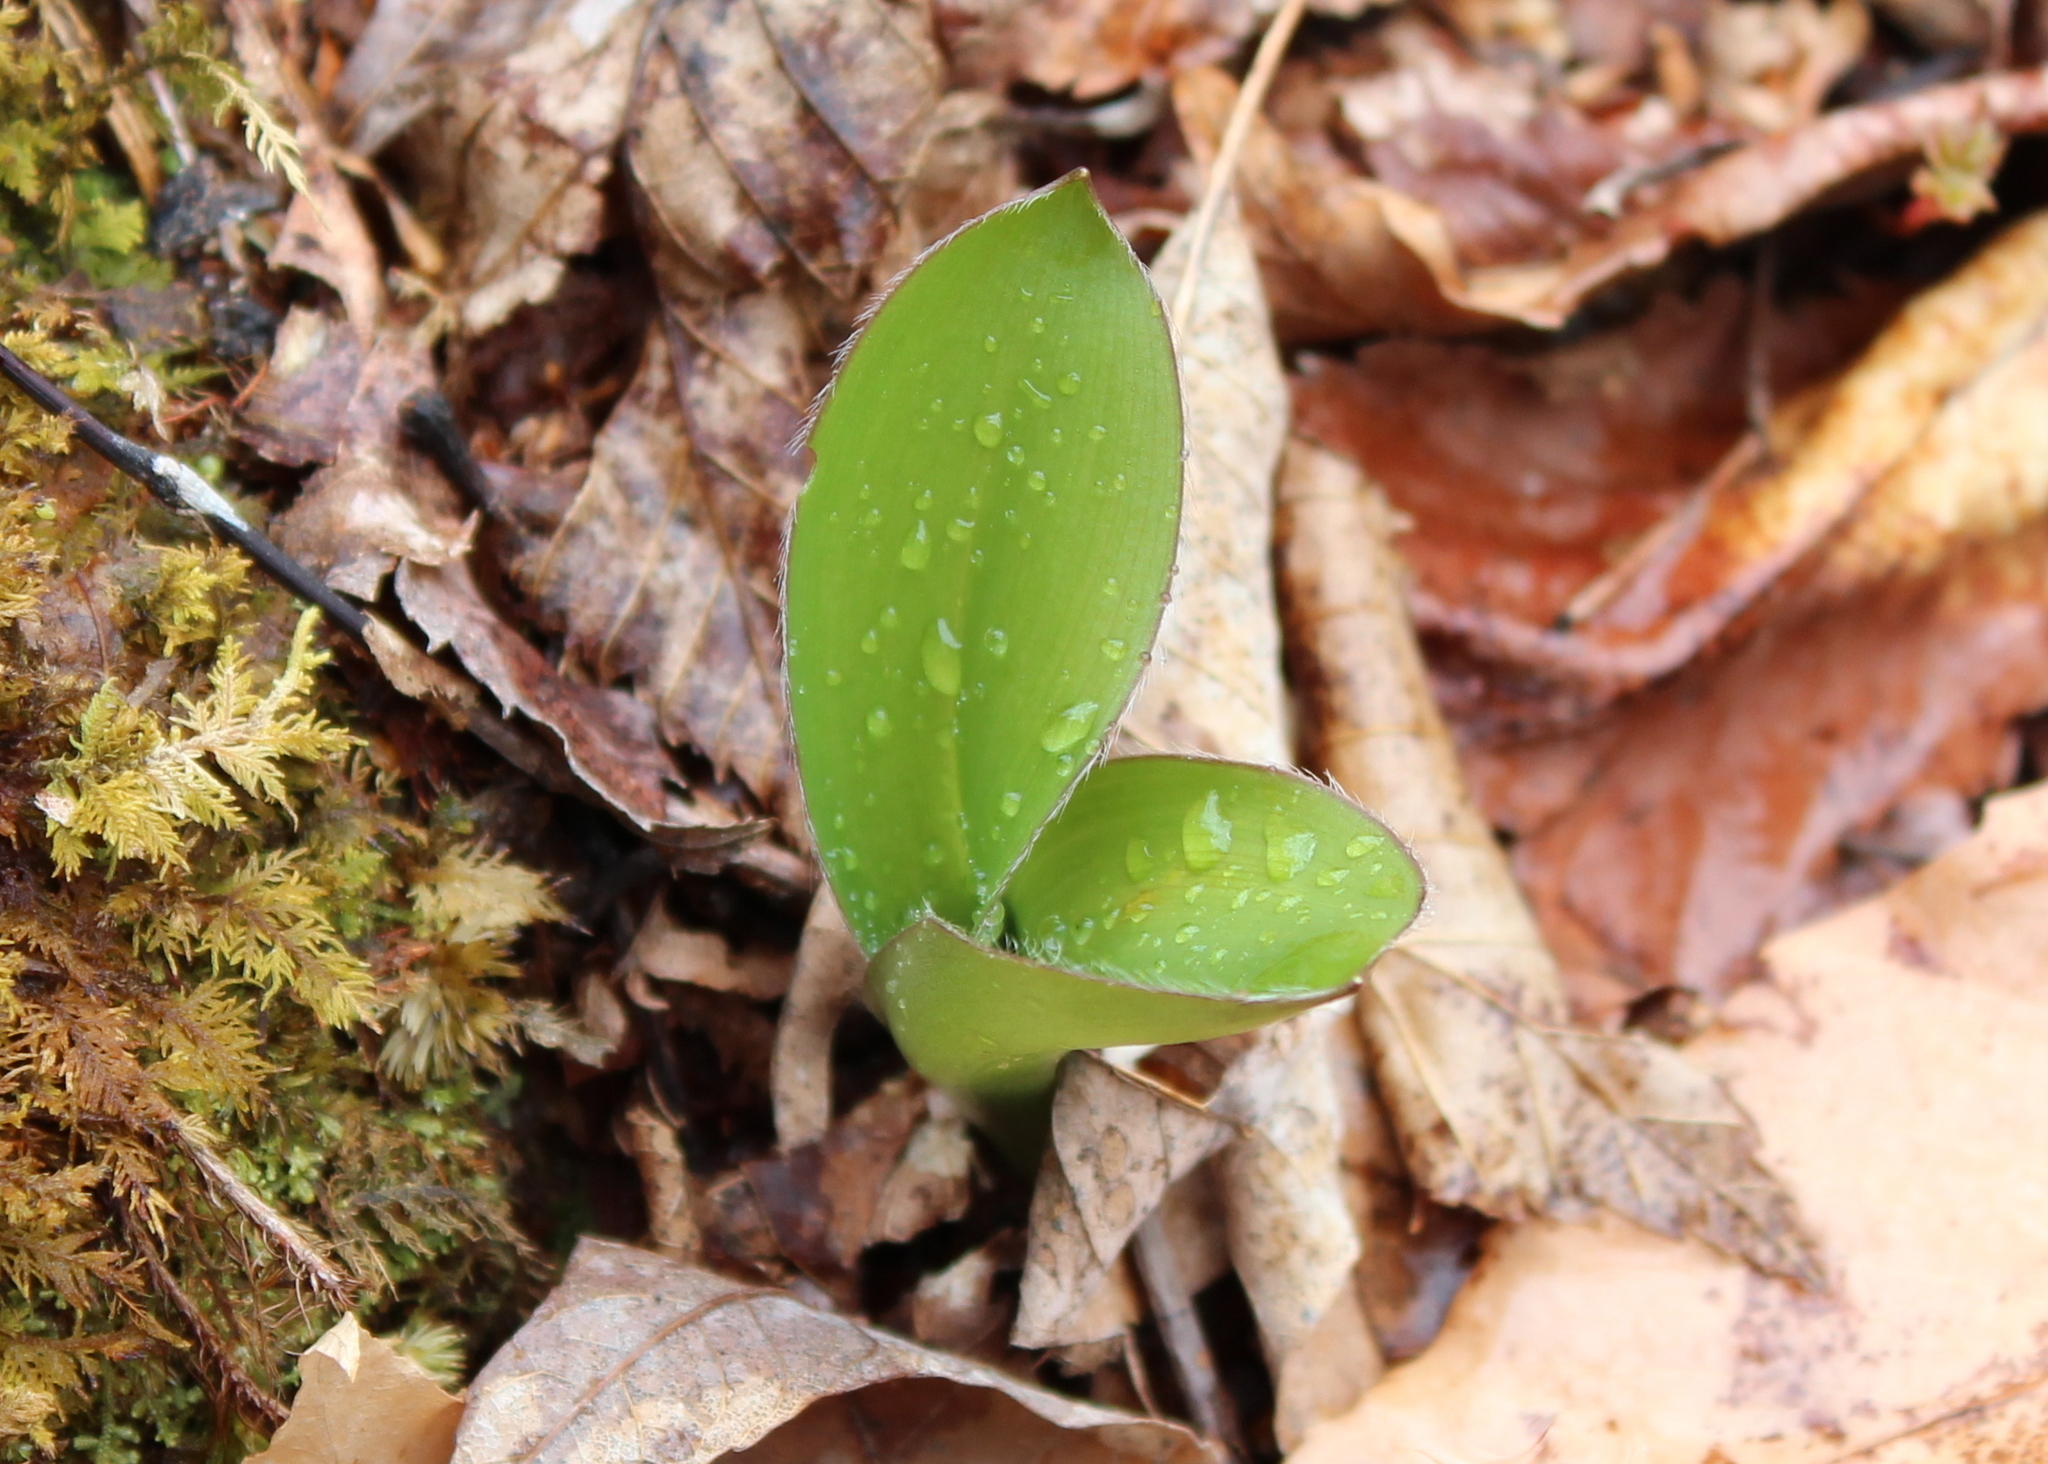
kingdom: Plantae
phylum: Tracheophyta
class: Liliopsida
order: Liliales
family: Liliaceae
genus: Clintonia
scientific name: Clintonia borealis
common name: Yellow clintonia
